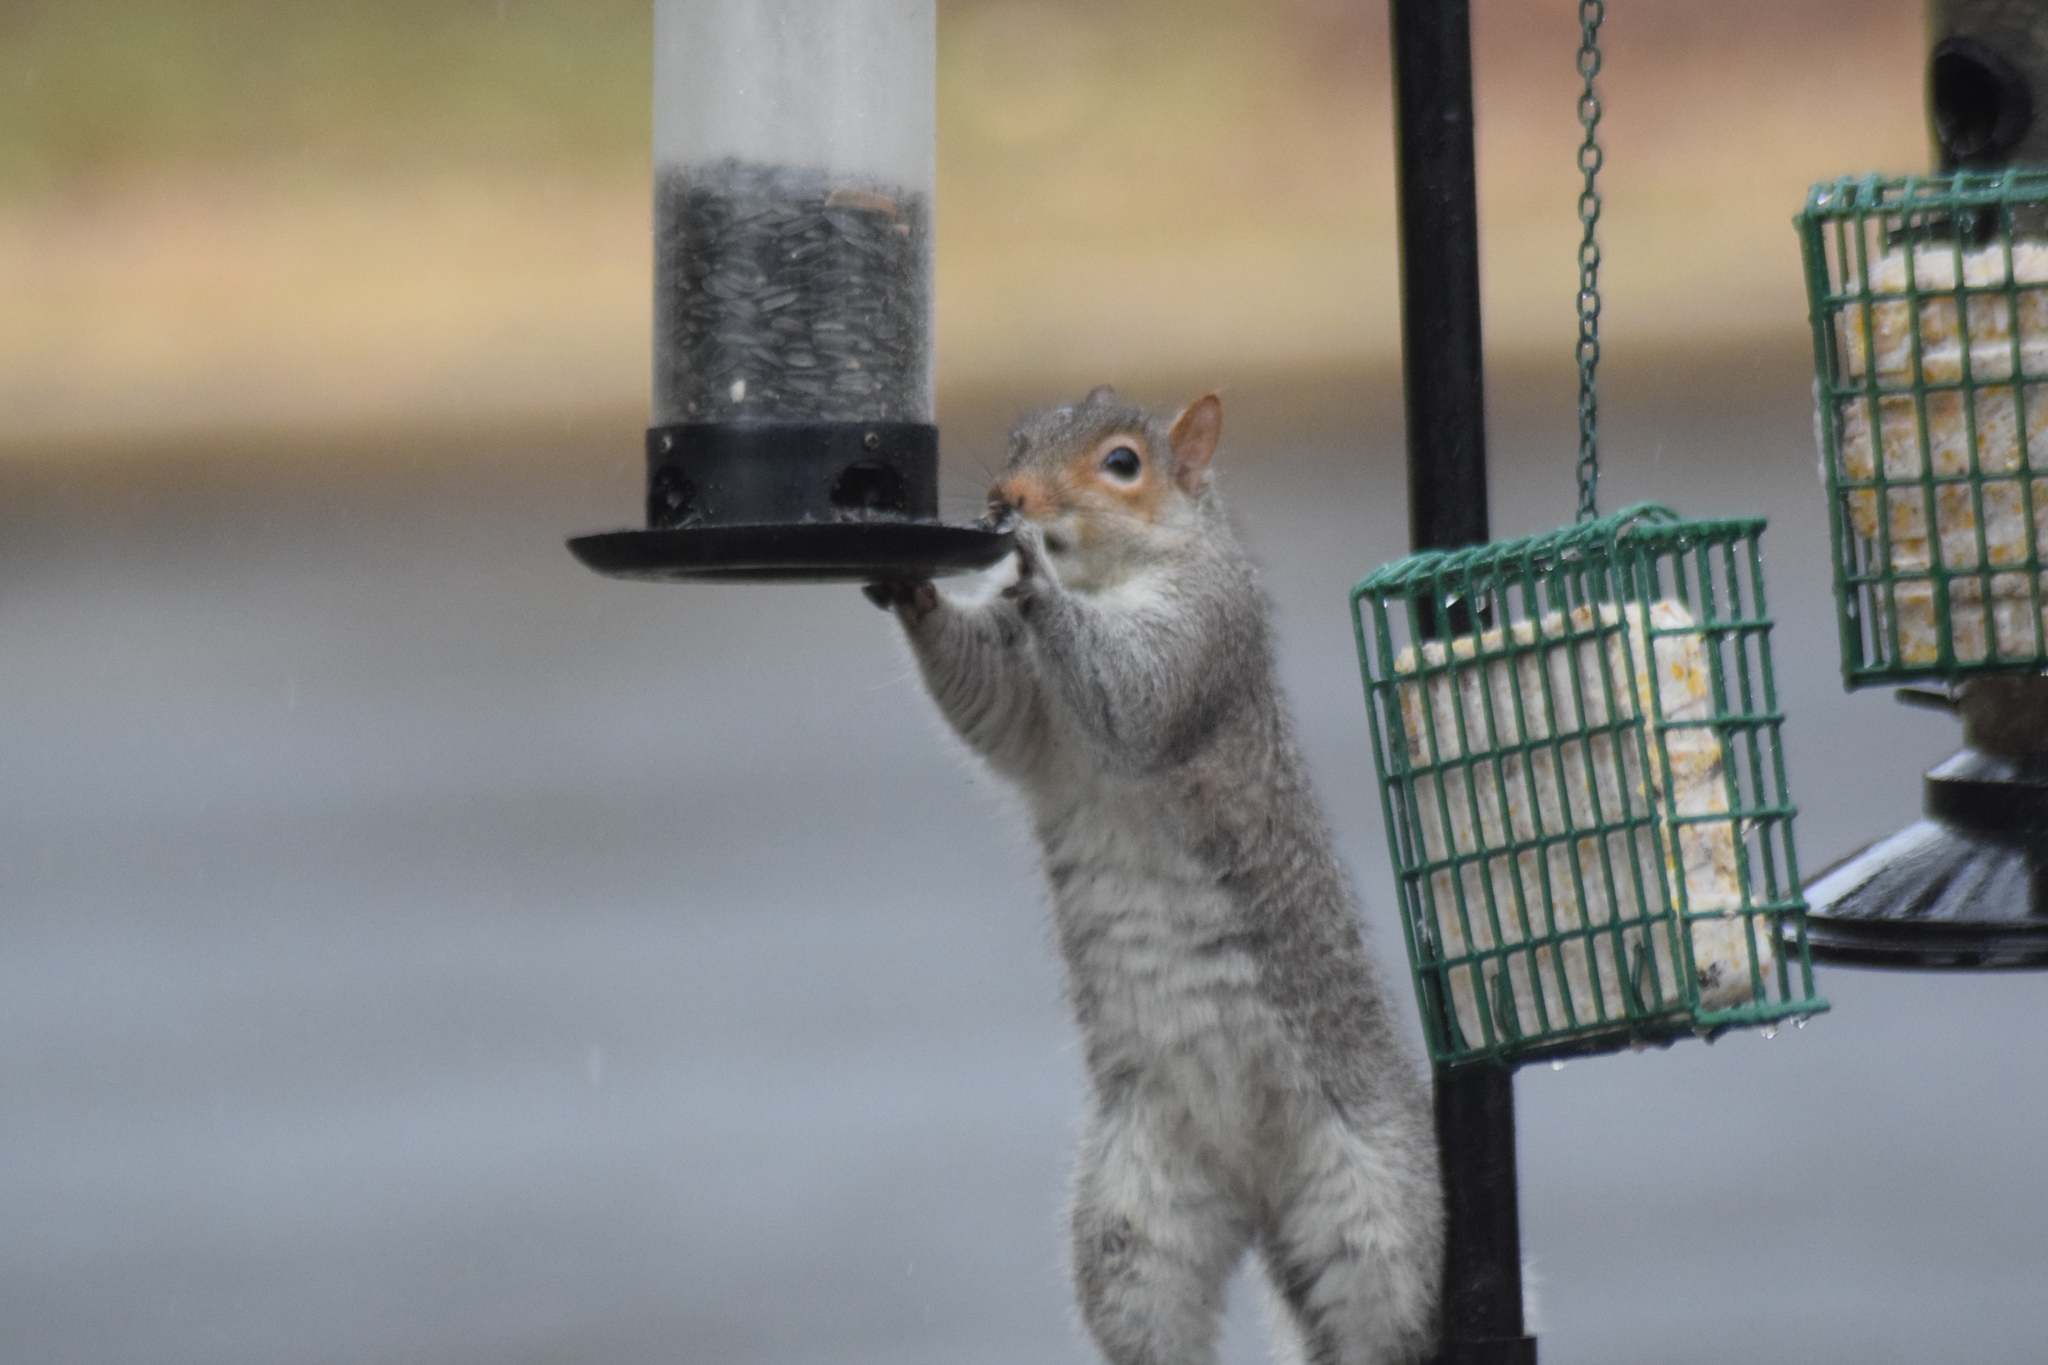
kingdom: Animalia
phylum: Chordata
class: Mammalia
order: Rodentia
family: Sciuridae
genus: Sciurus
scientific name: Sciurus carolinensis
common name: Eastern gray squirrel
